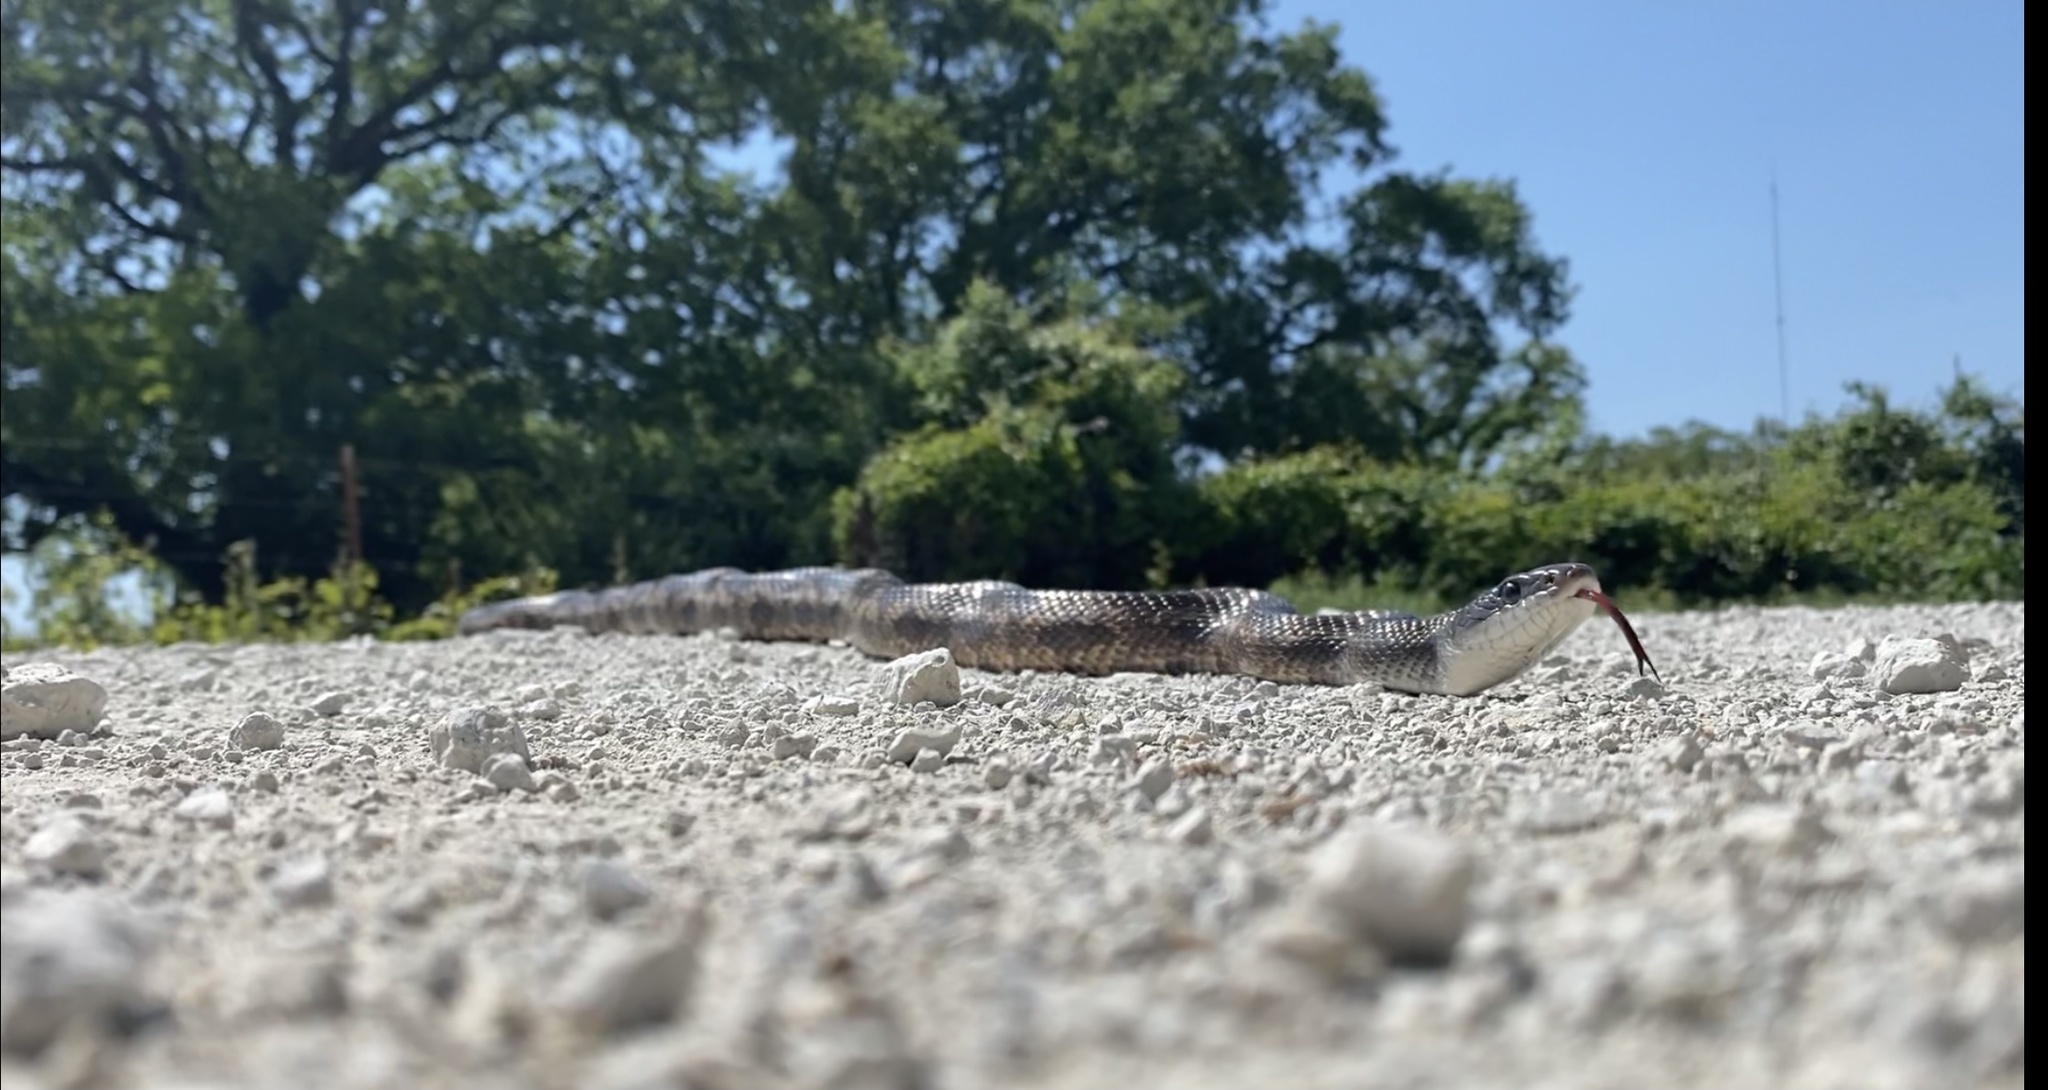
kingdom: Animalia
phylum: Chordata
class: Squamata
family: Colubridae
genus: Pantherophis
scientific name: Pantherophis obsoletus
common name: Black rat snake
